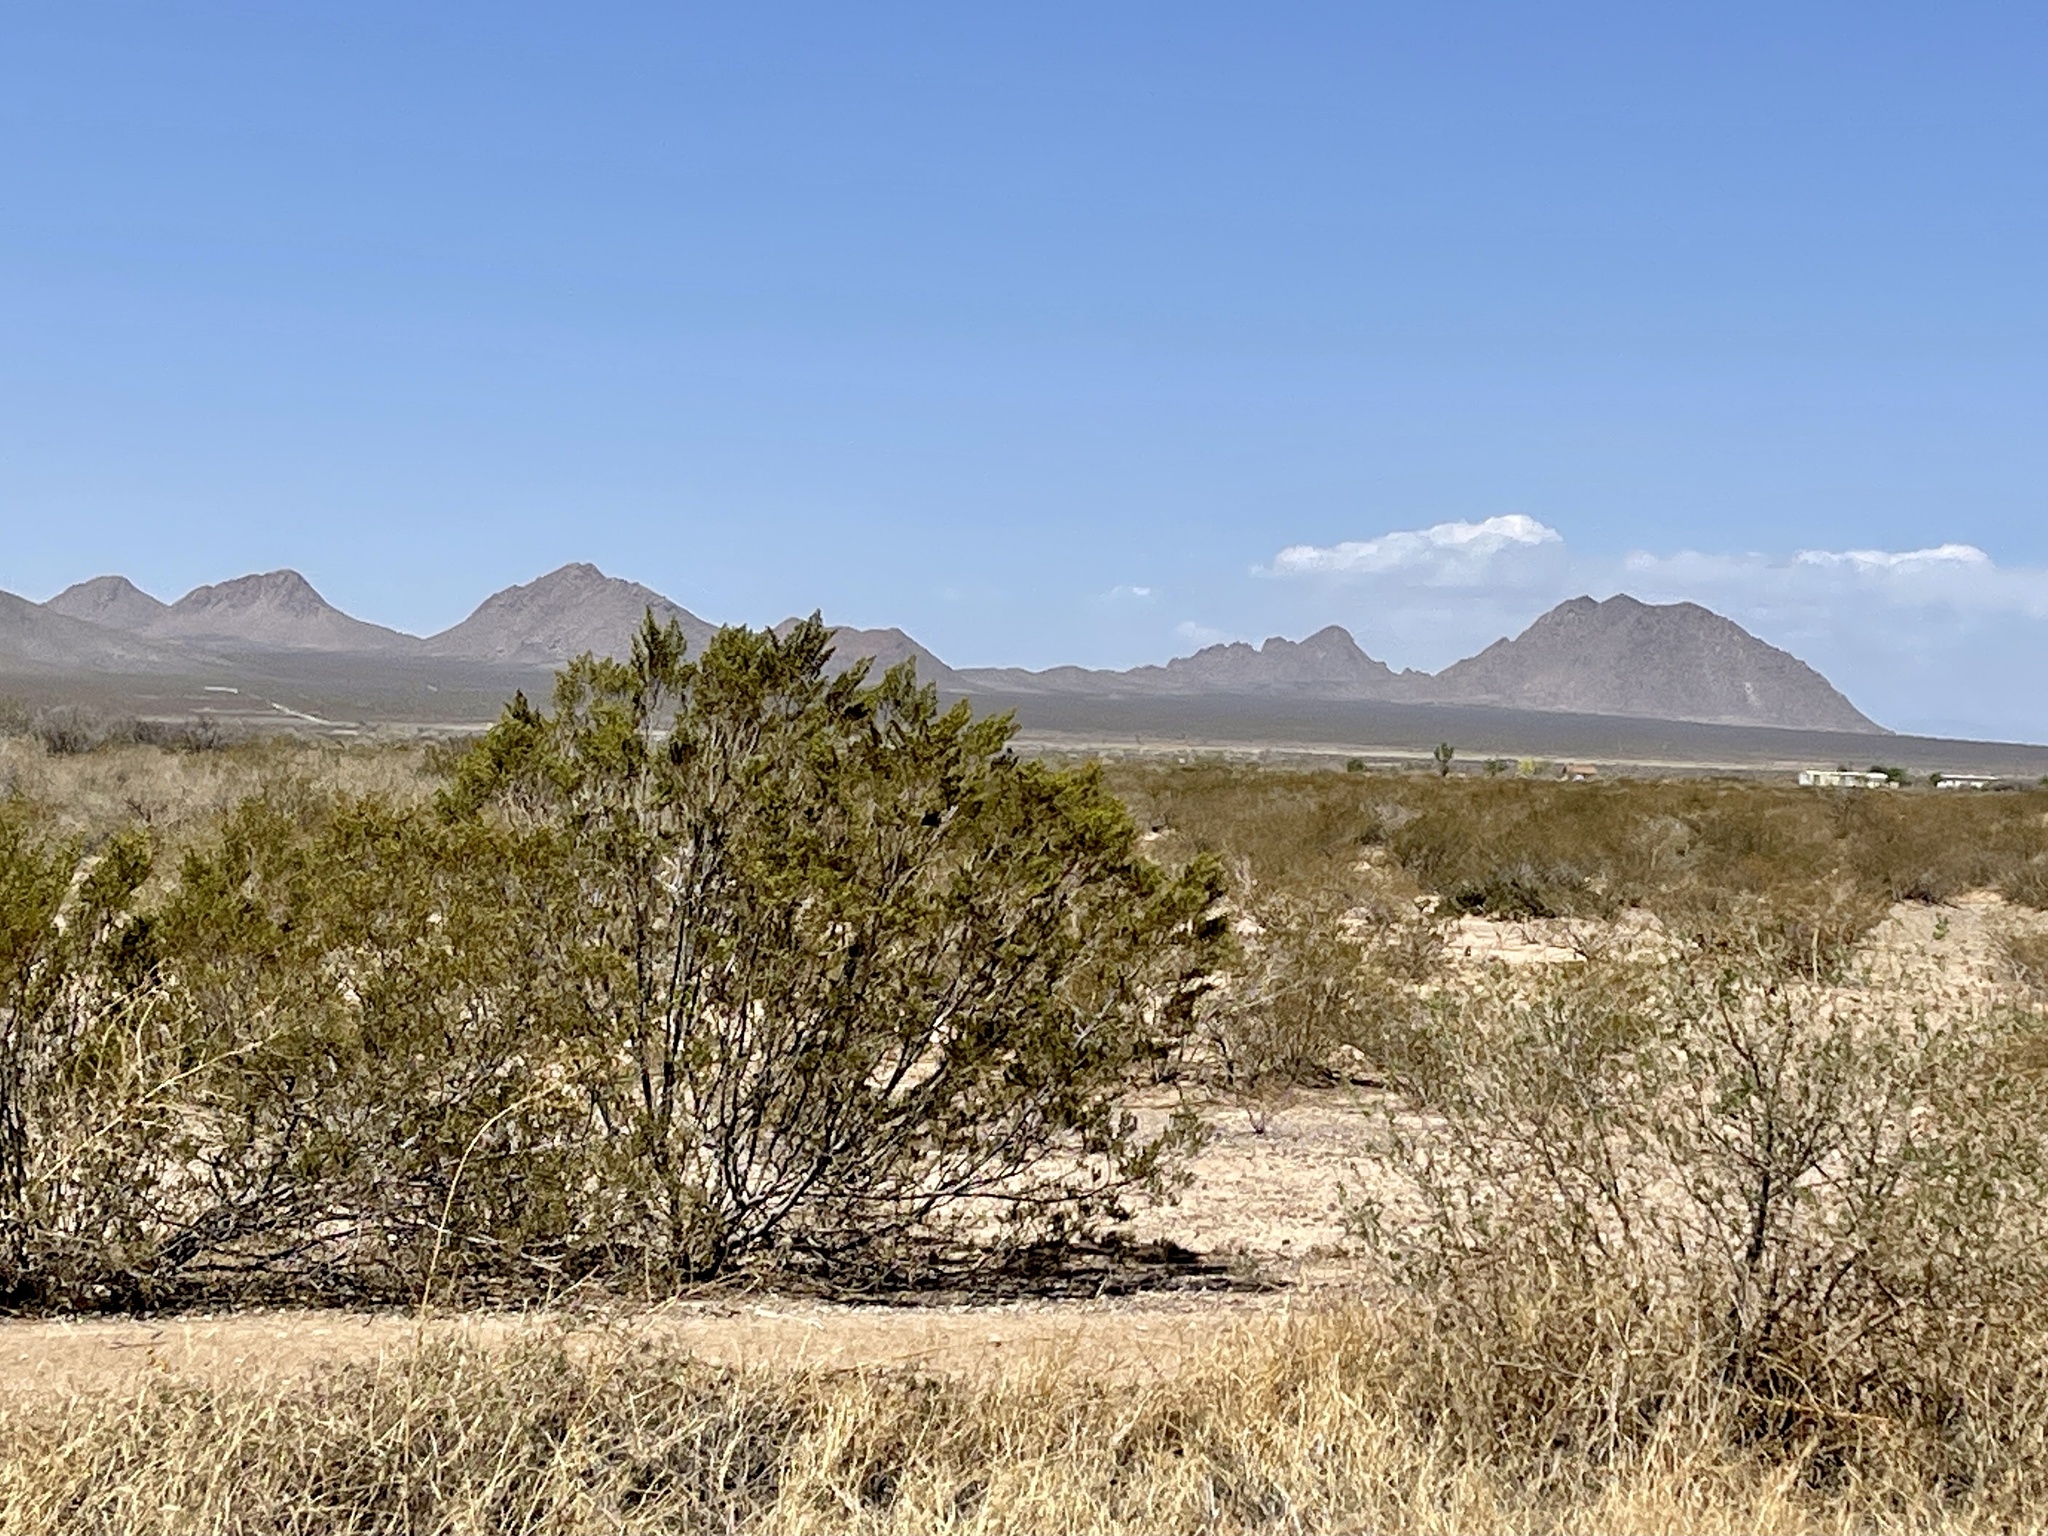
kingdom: Plantae
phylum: Tracheophyta
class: Magnoliopsida
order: Zygophyllales
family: Zygophyllaceae
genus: Larrea
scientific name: Larrea tridentata
